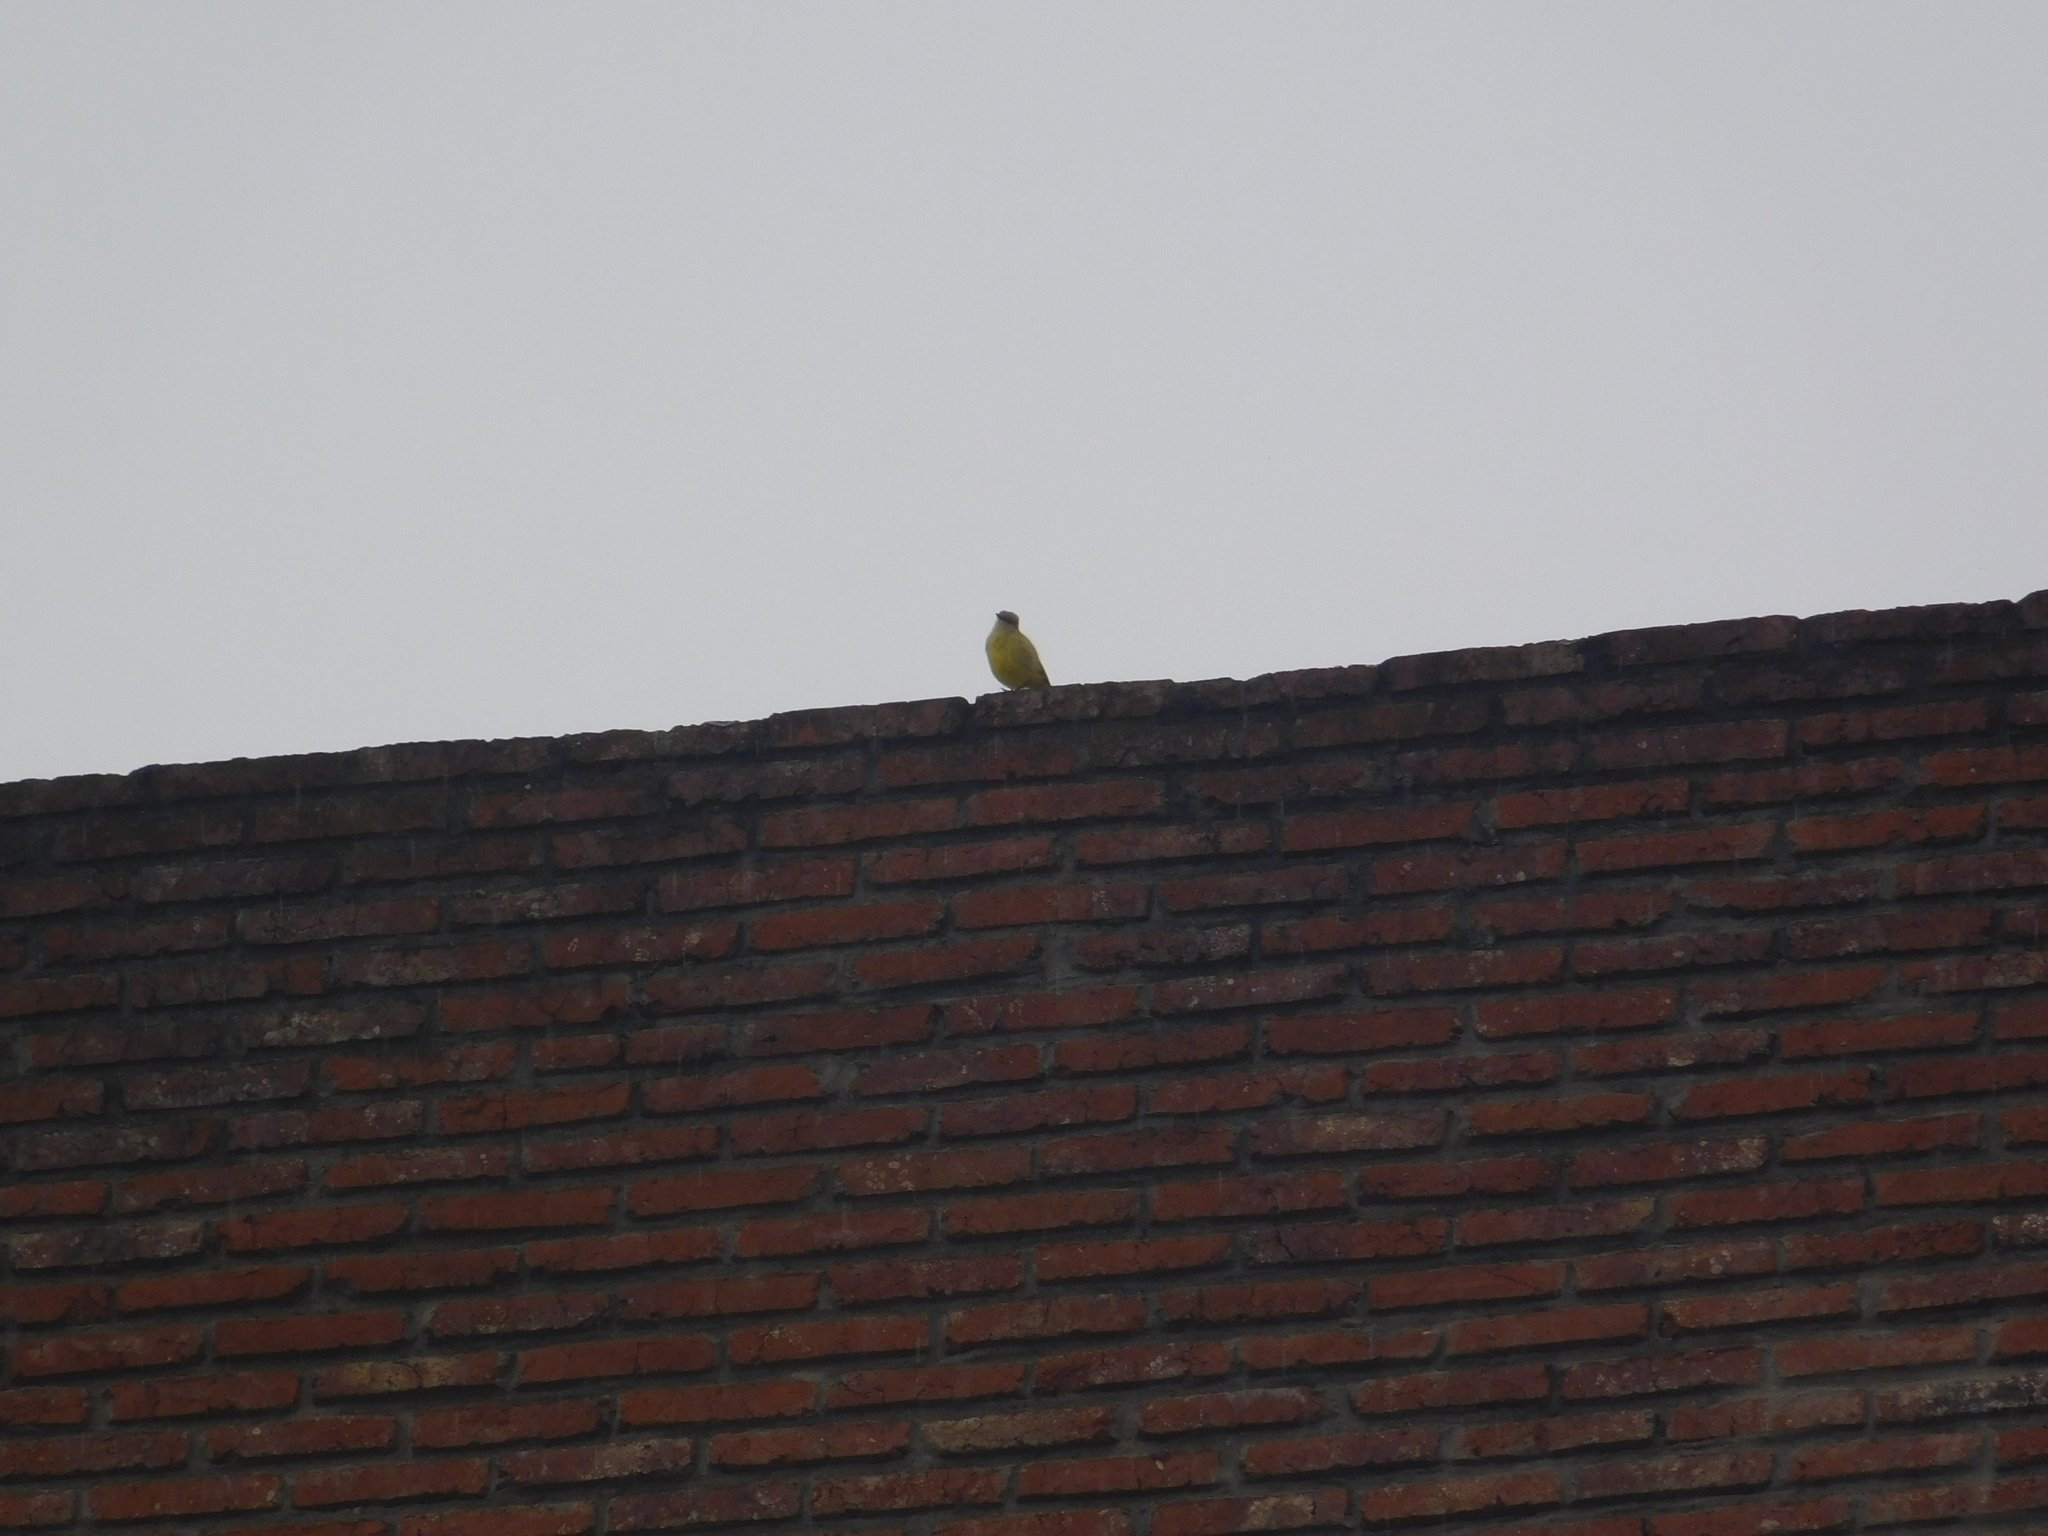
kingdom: Animalia
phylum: Chordata
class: Aves
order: Passeriformes
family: Tyrannidae
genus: Machetornis
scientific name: Machetornis rixosa
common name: Cattle tyrant
